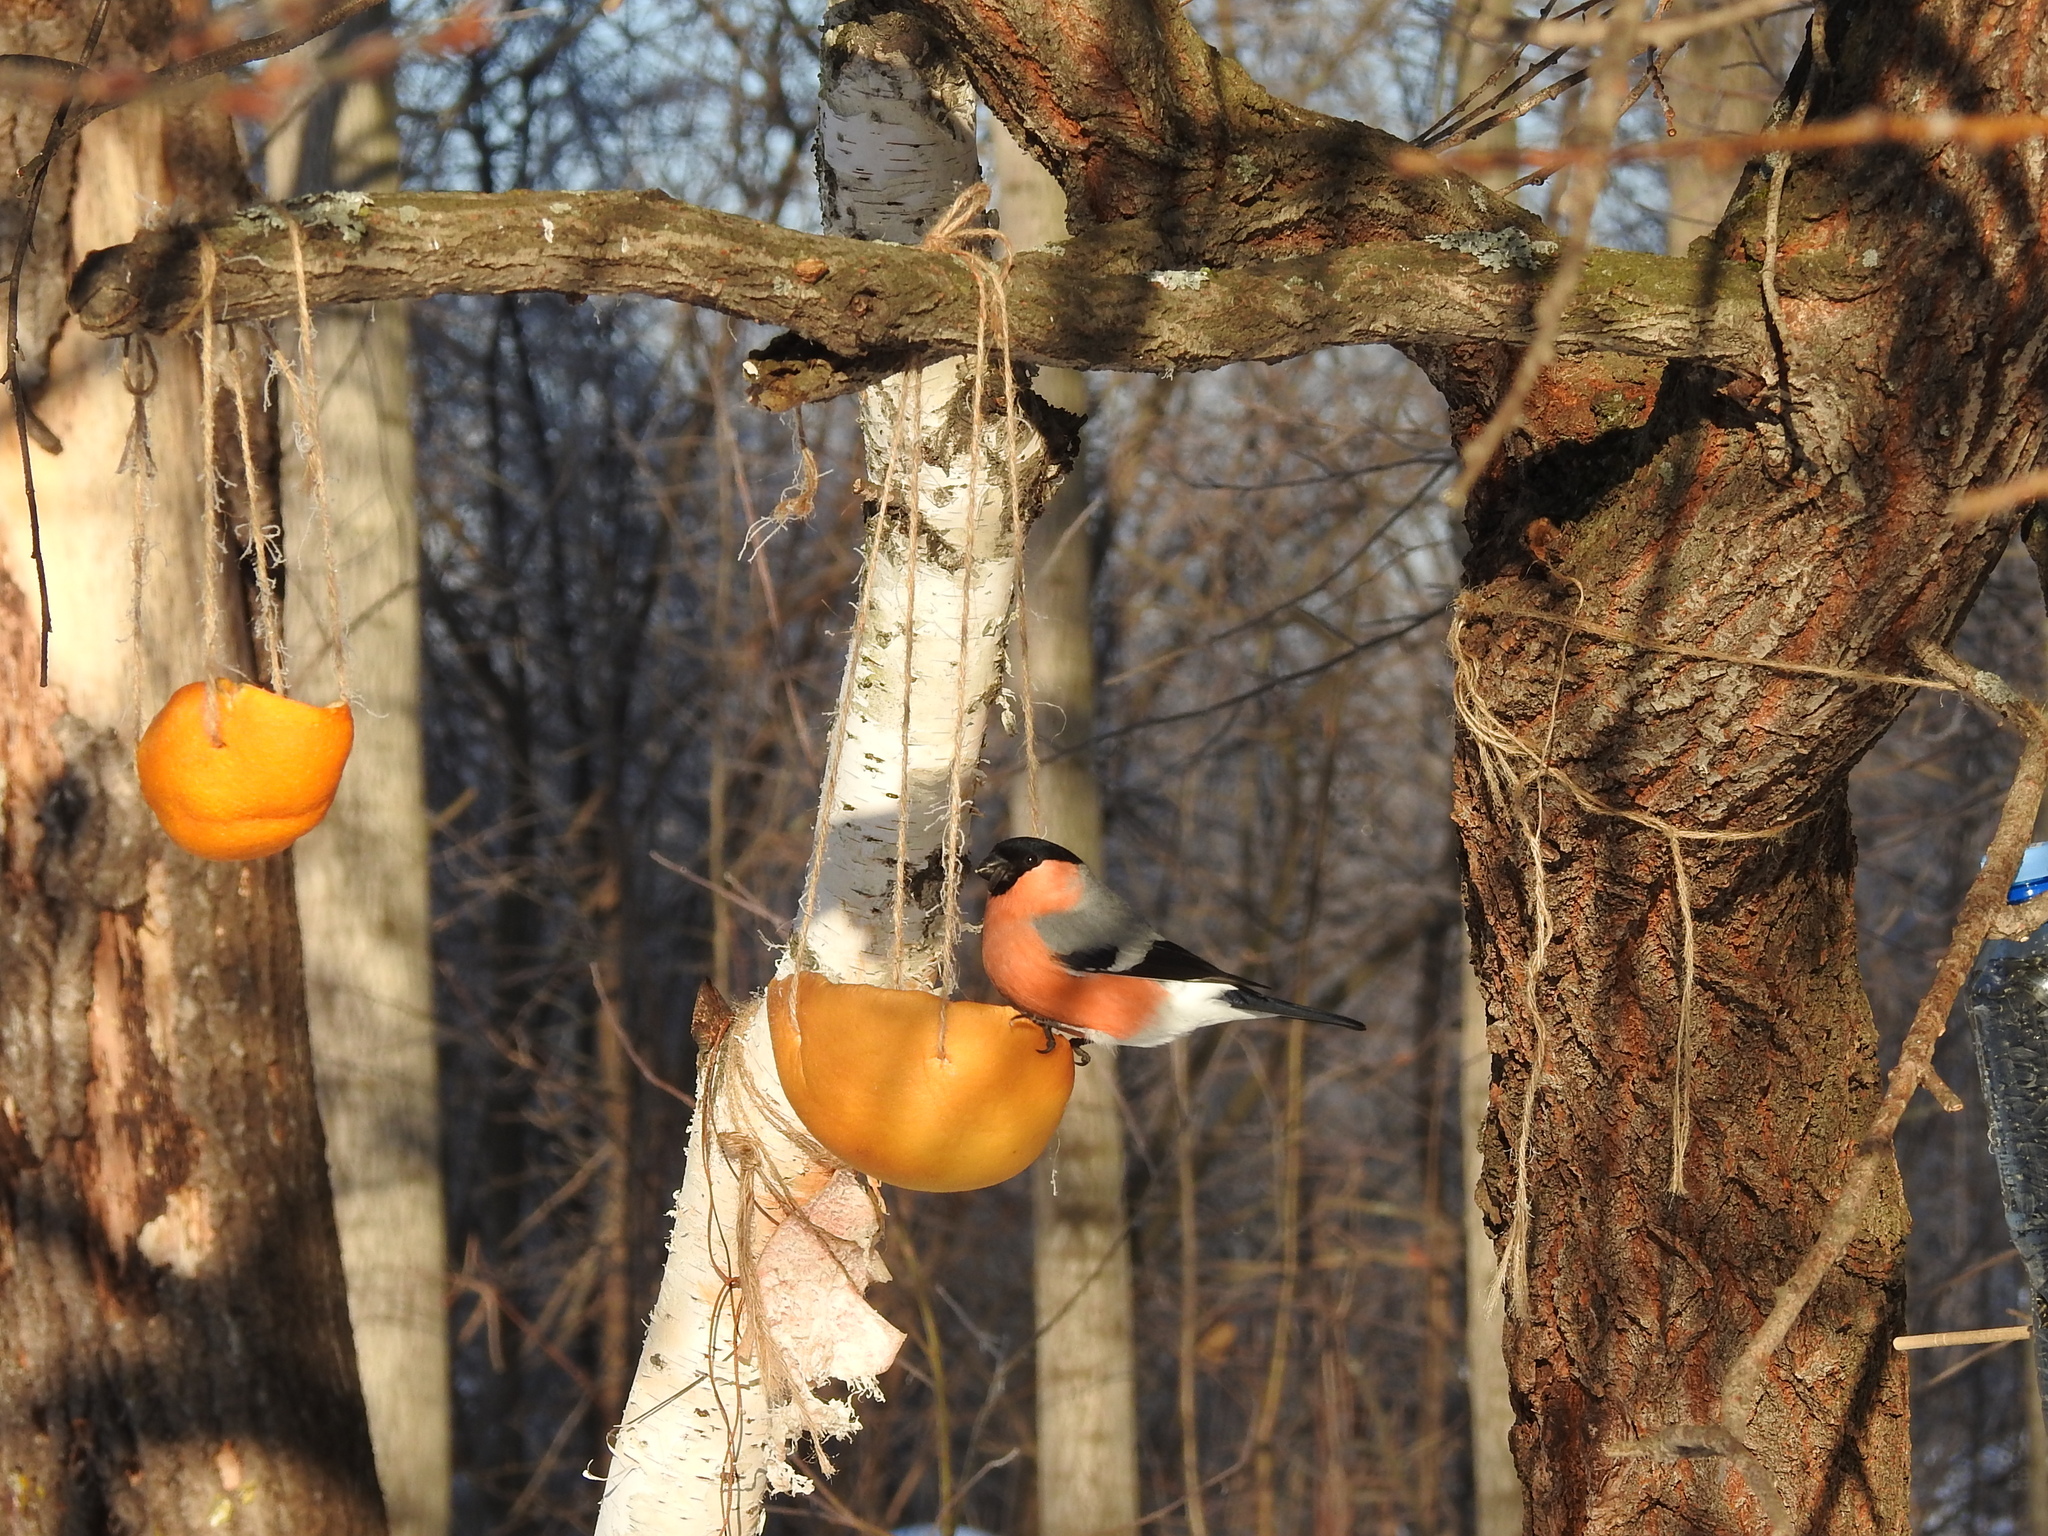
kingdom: Animalia
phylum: Chordata
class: Aves
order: Passeriformes
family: Fringillidae
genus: Pyrrhula
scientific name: Pyrrhula pyrrhula
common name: Eurasian bullfinch
